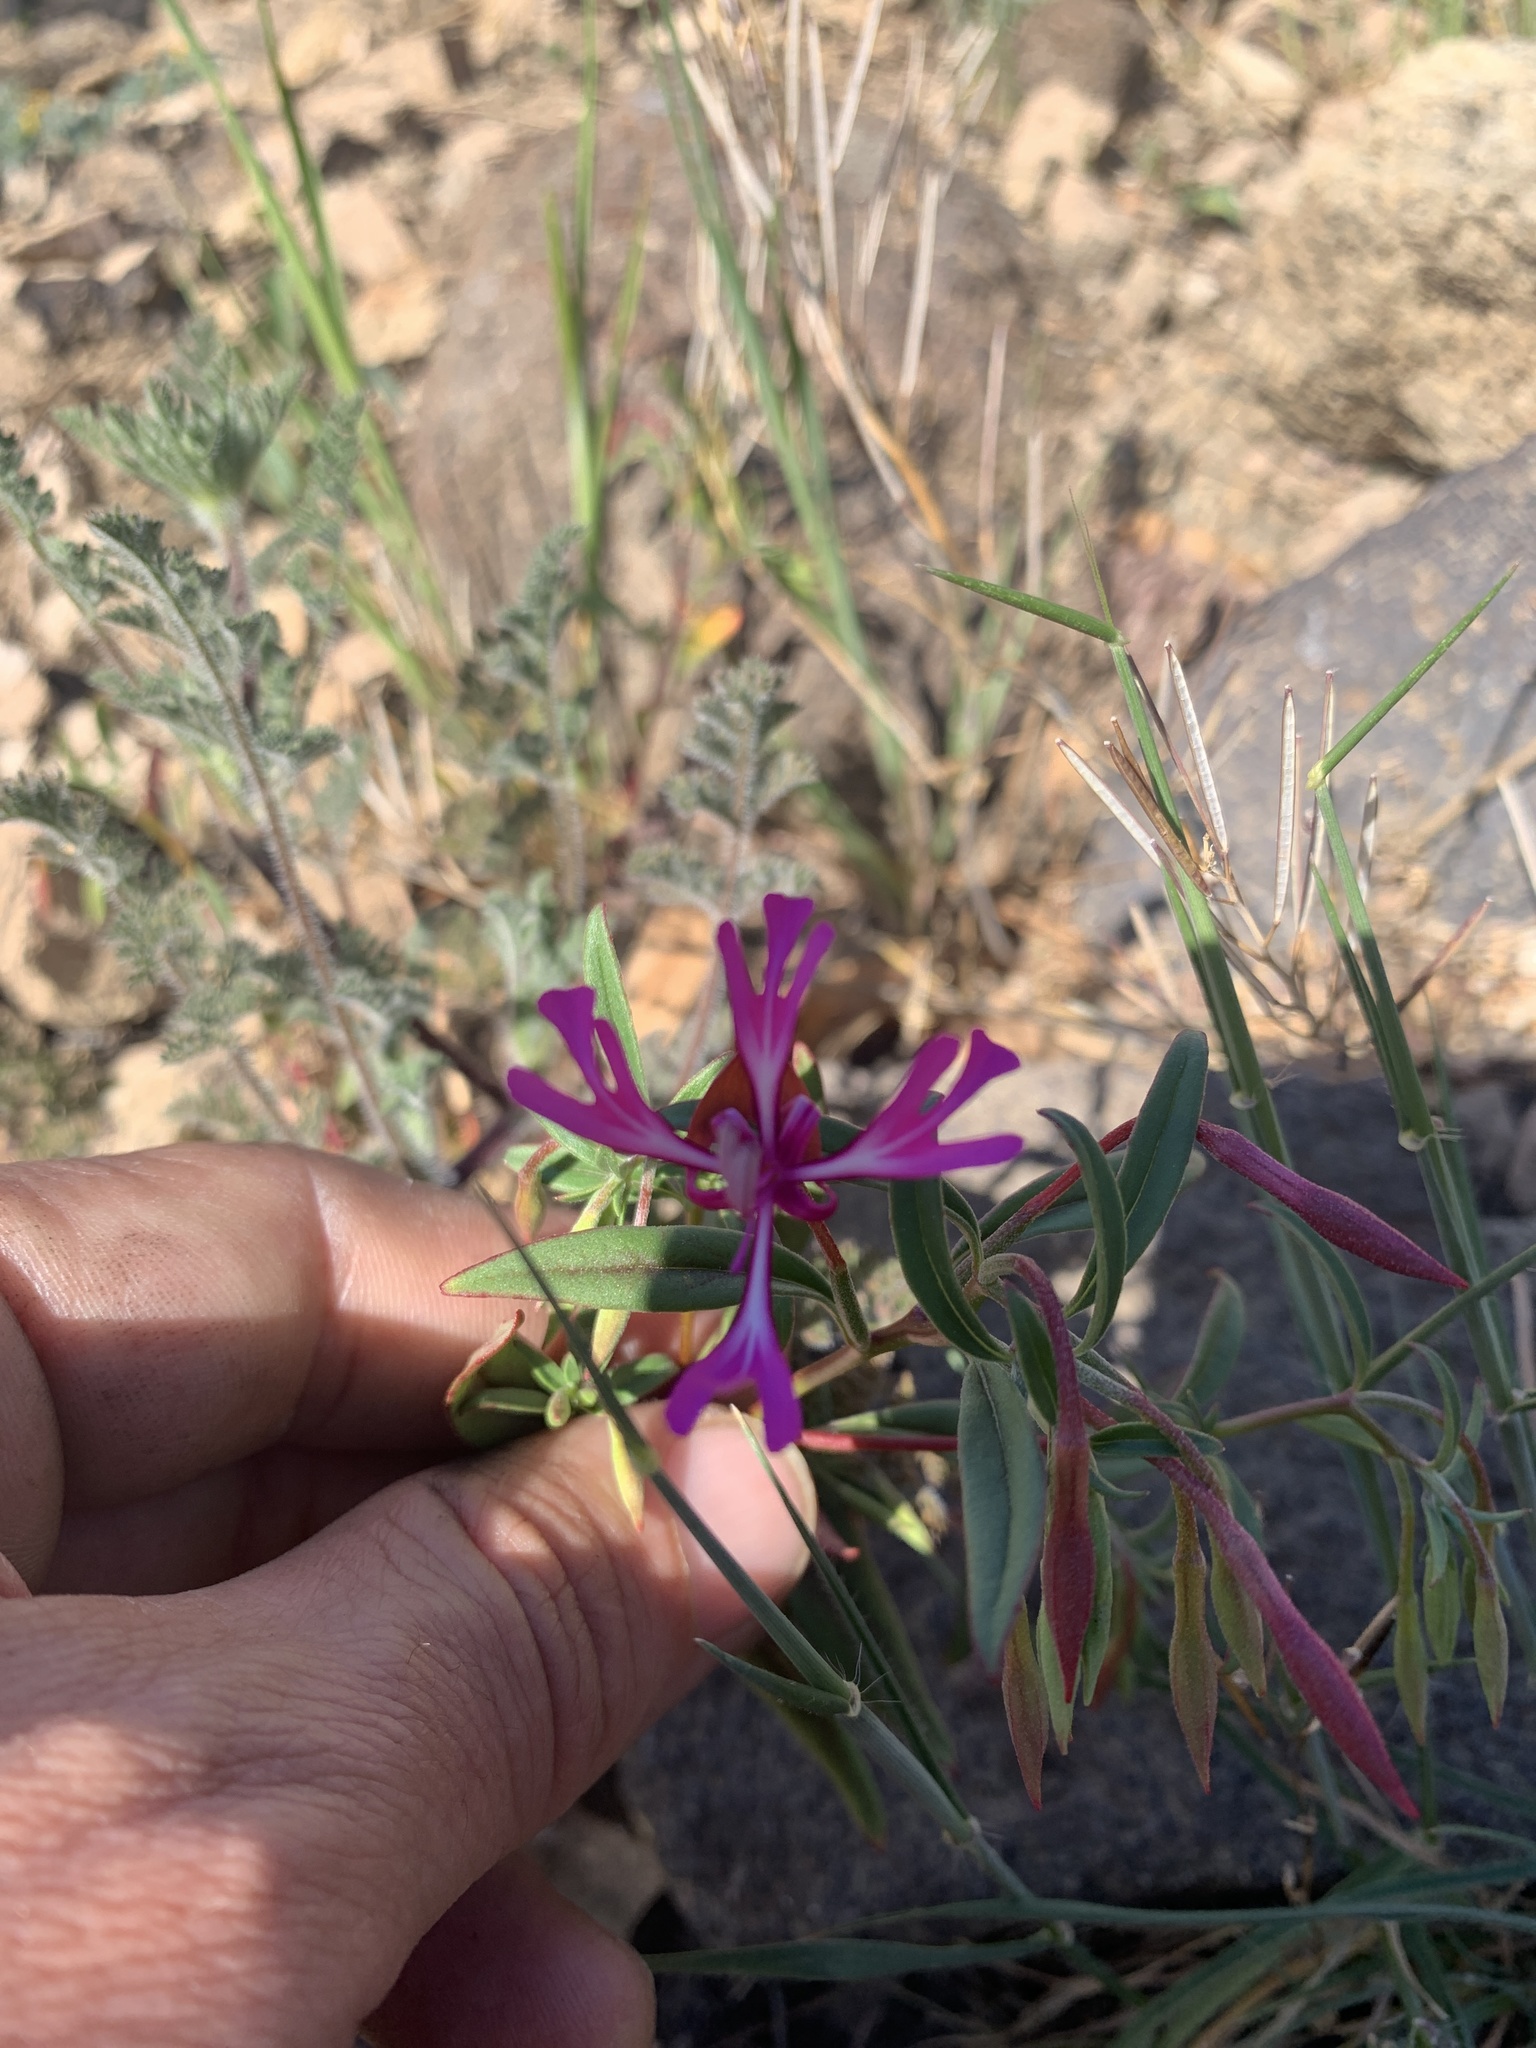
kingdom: Plantae
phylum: Tracheophyta
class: Magnoliopsida
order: Myrtales
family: Onagraceae
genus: Clarkia
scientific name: Clarkia concinna
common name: Red-ribbons
